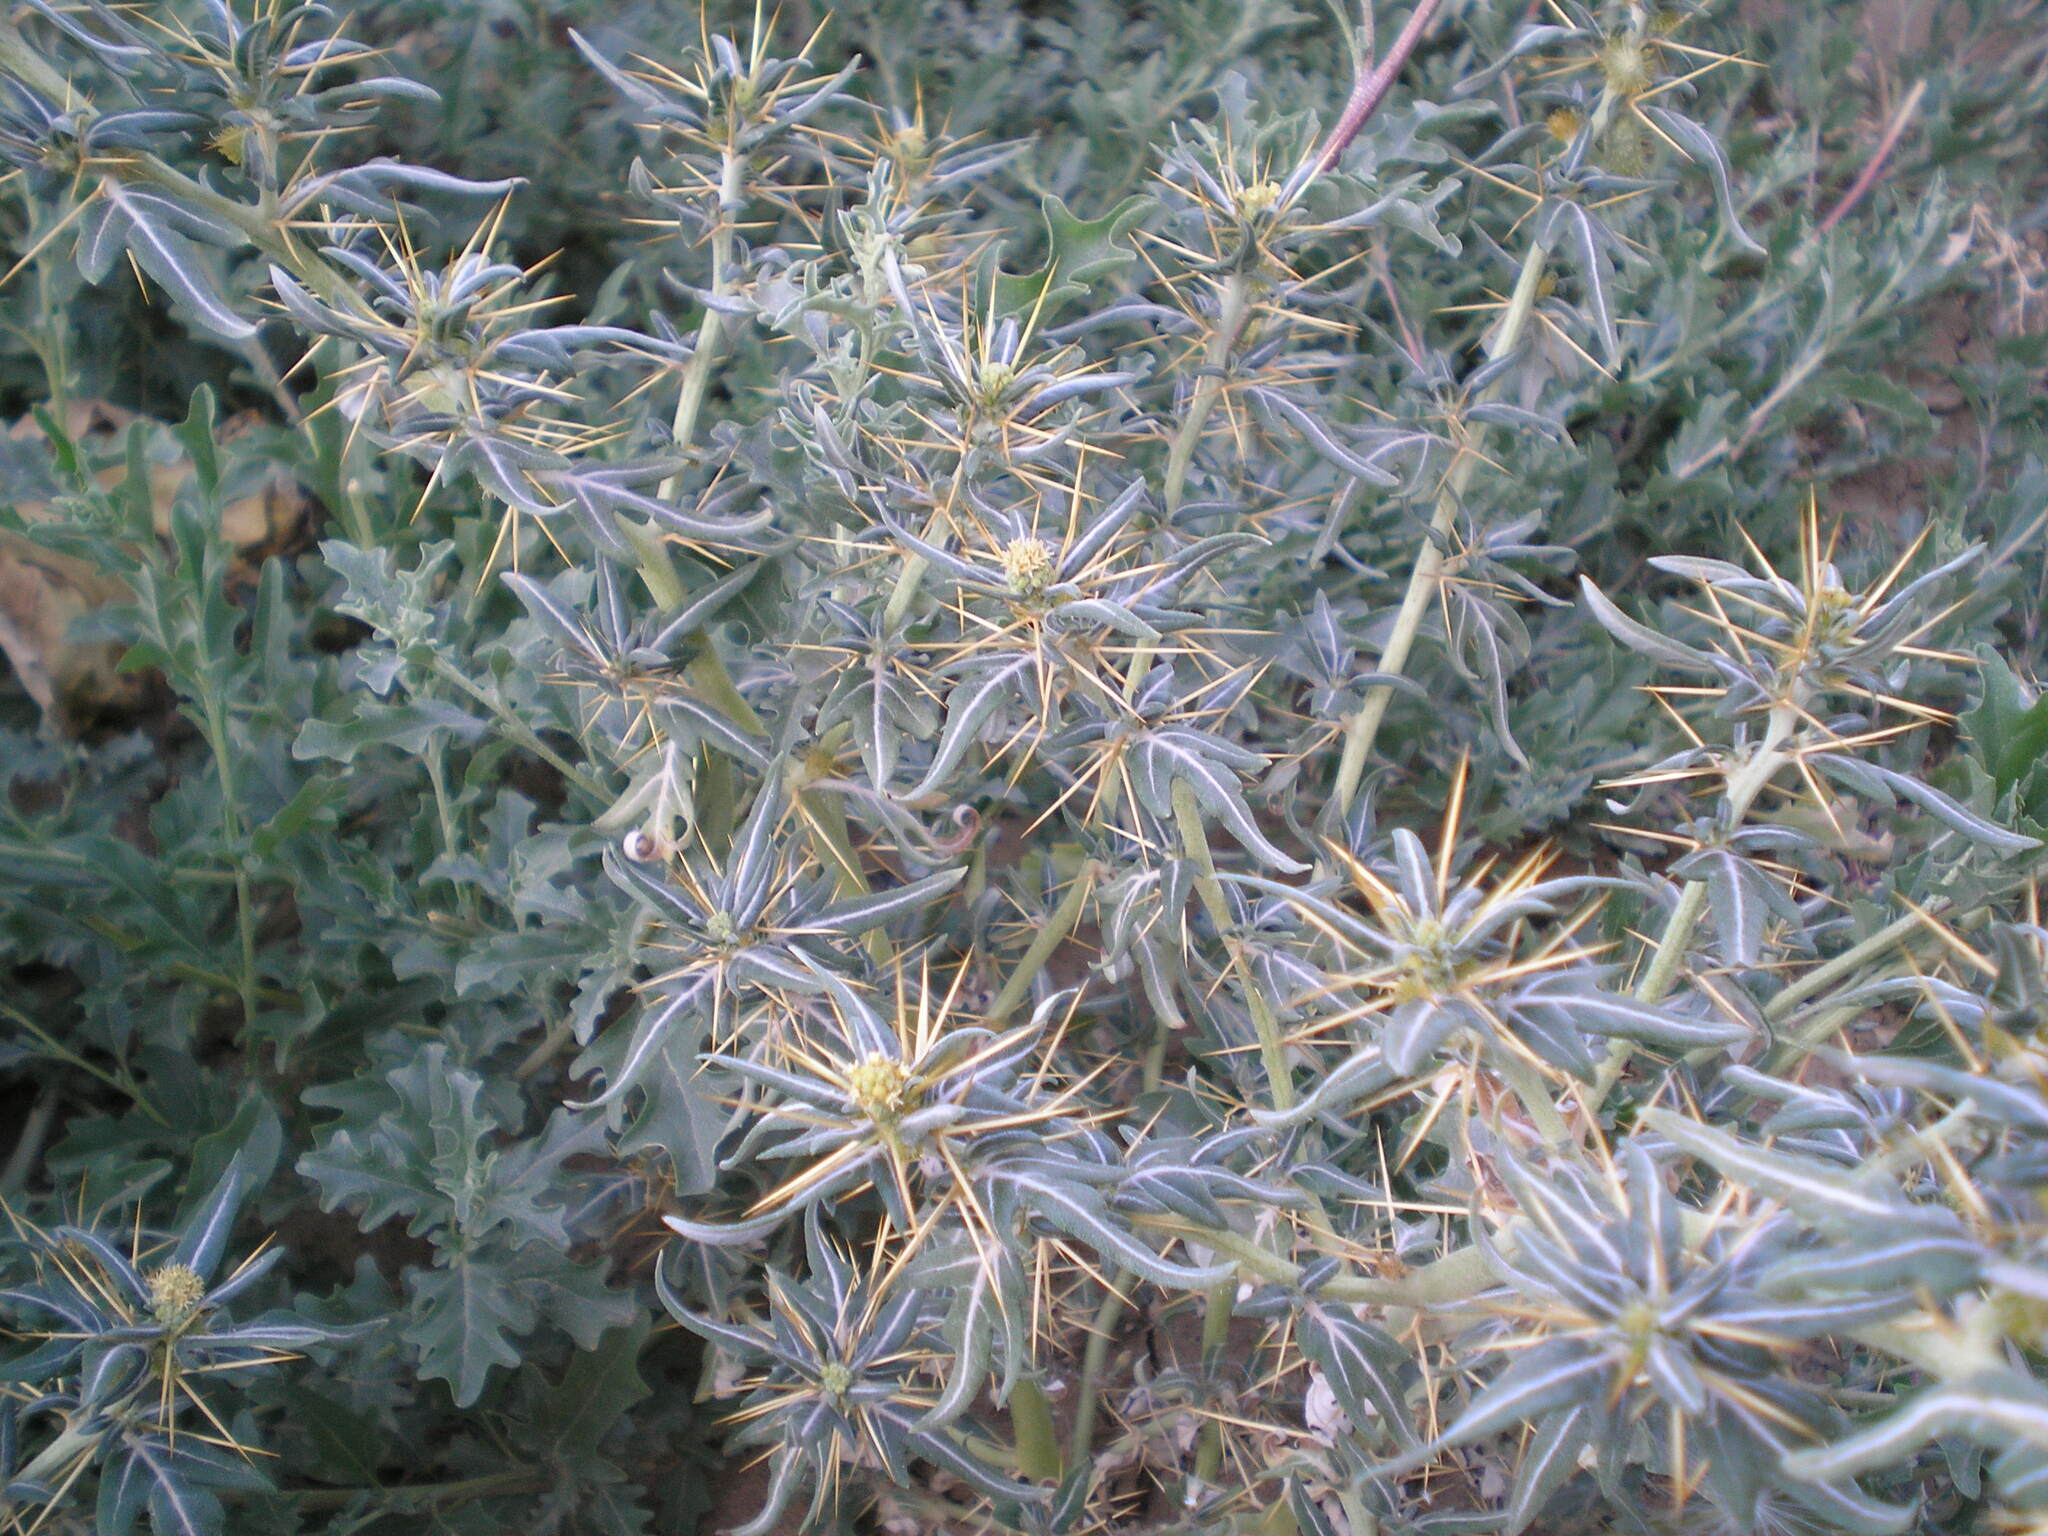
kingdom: Plantae
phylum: Tracheophyta
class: Magnoliopsida
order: Asterales
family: Asteraceae
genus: Xanthium
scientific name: Xanthium spinosum
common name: Spiny cocklebur
